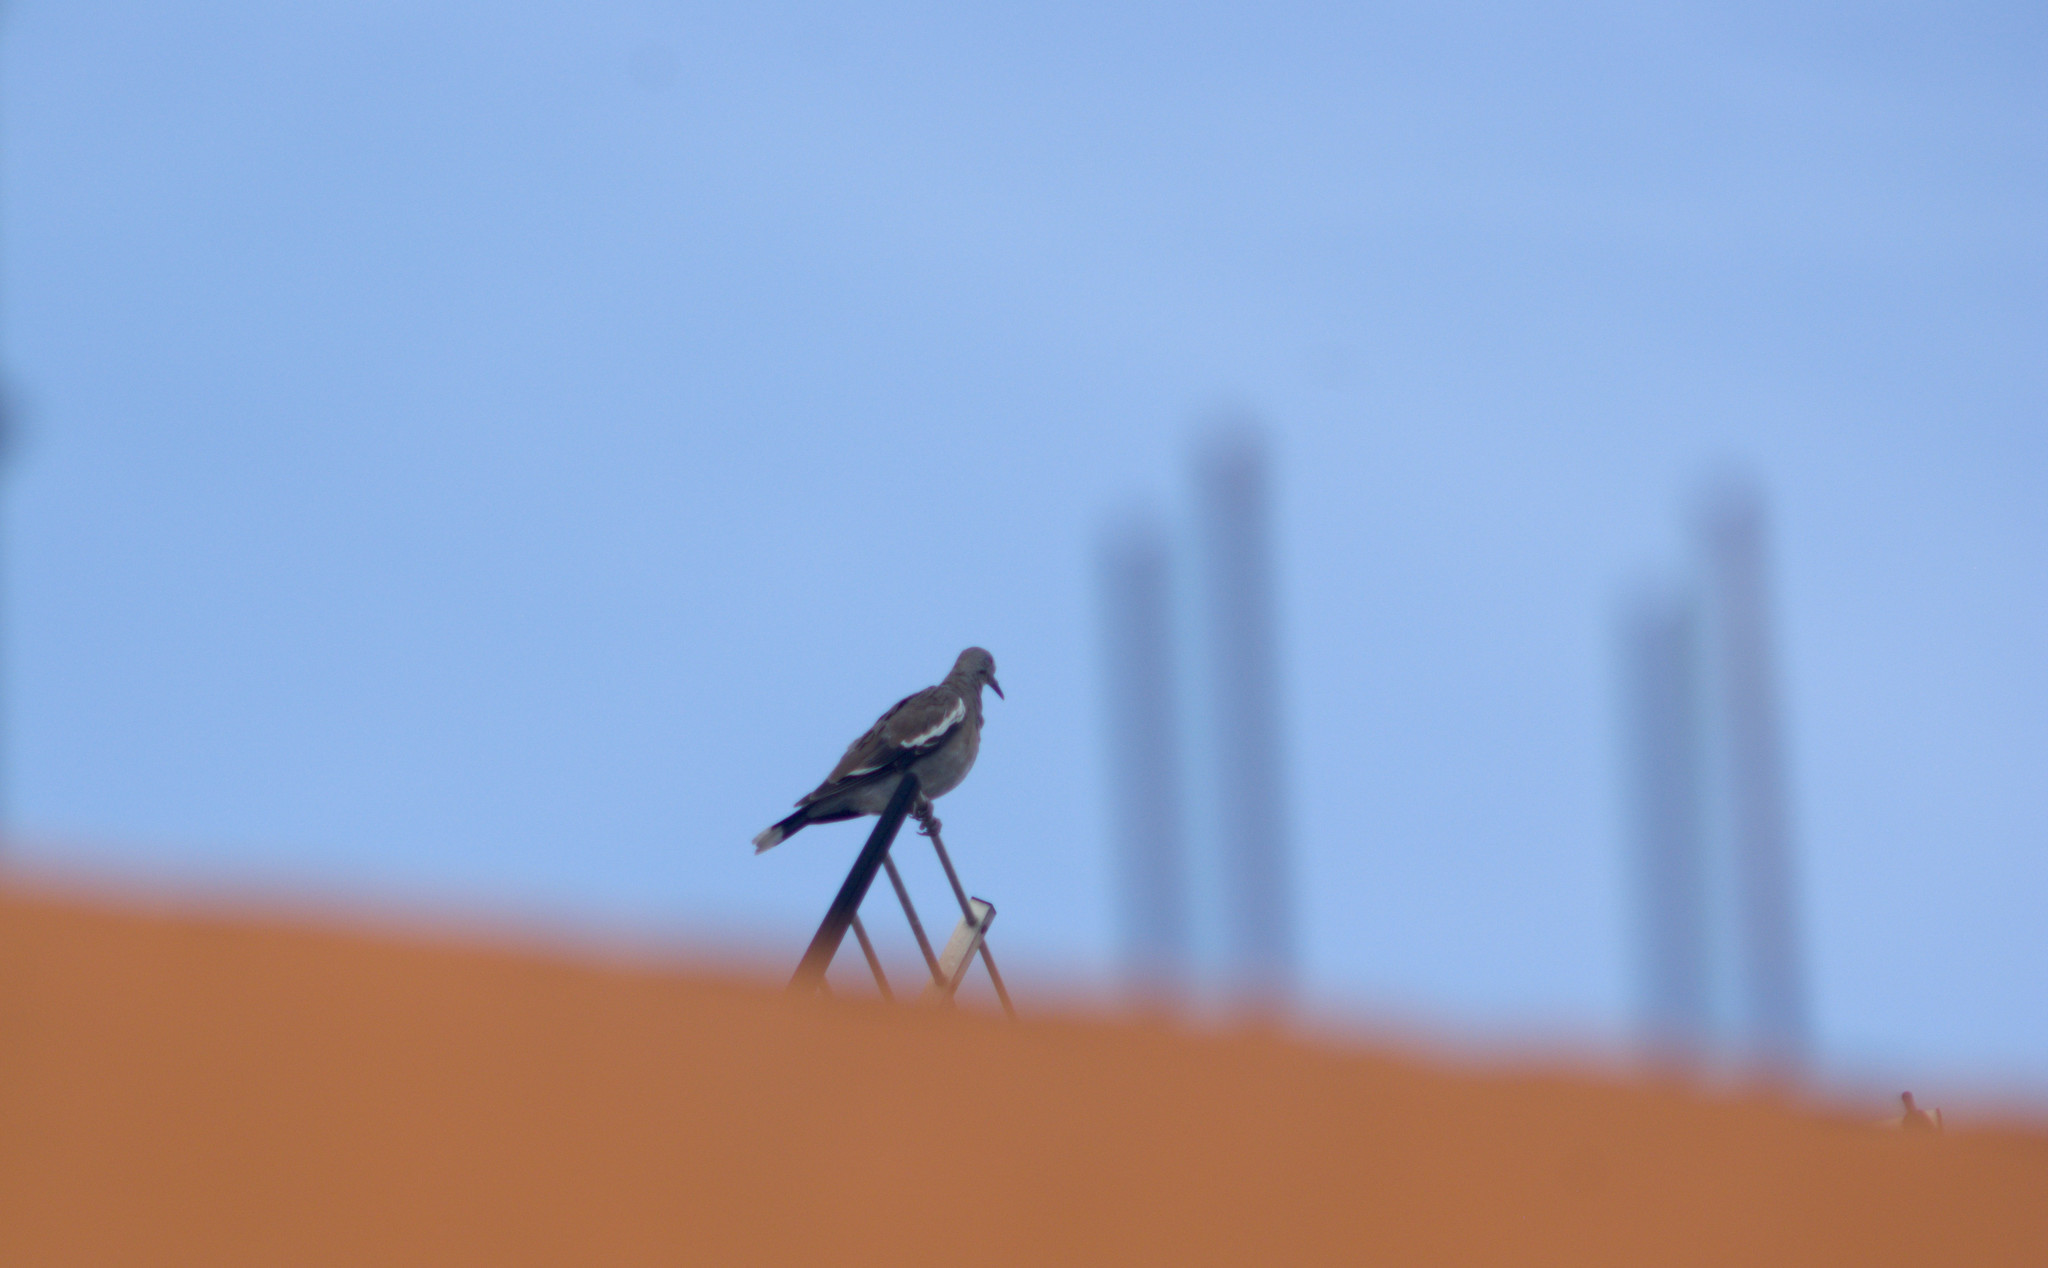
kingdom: Animalia
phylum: Chordata
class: Aves
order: Columbiformes
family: Columbidae
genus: Zenaida
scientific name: Zenaida asiatica
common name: White-winged dove
